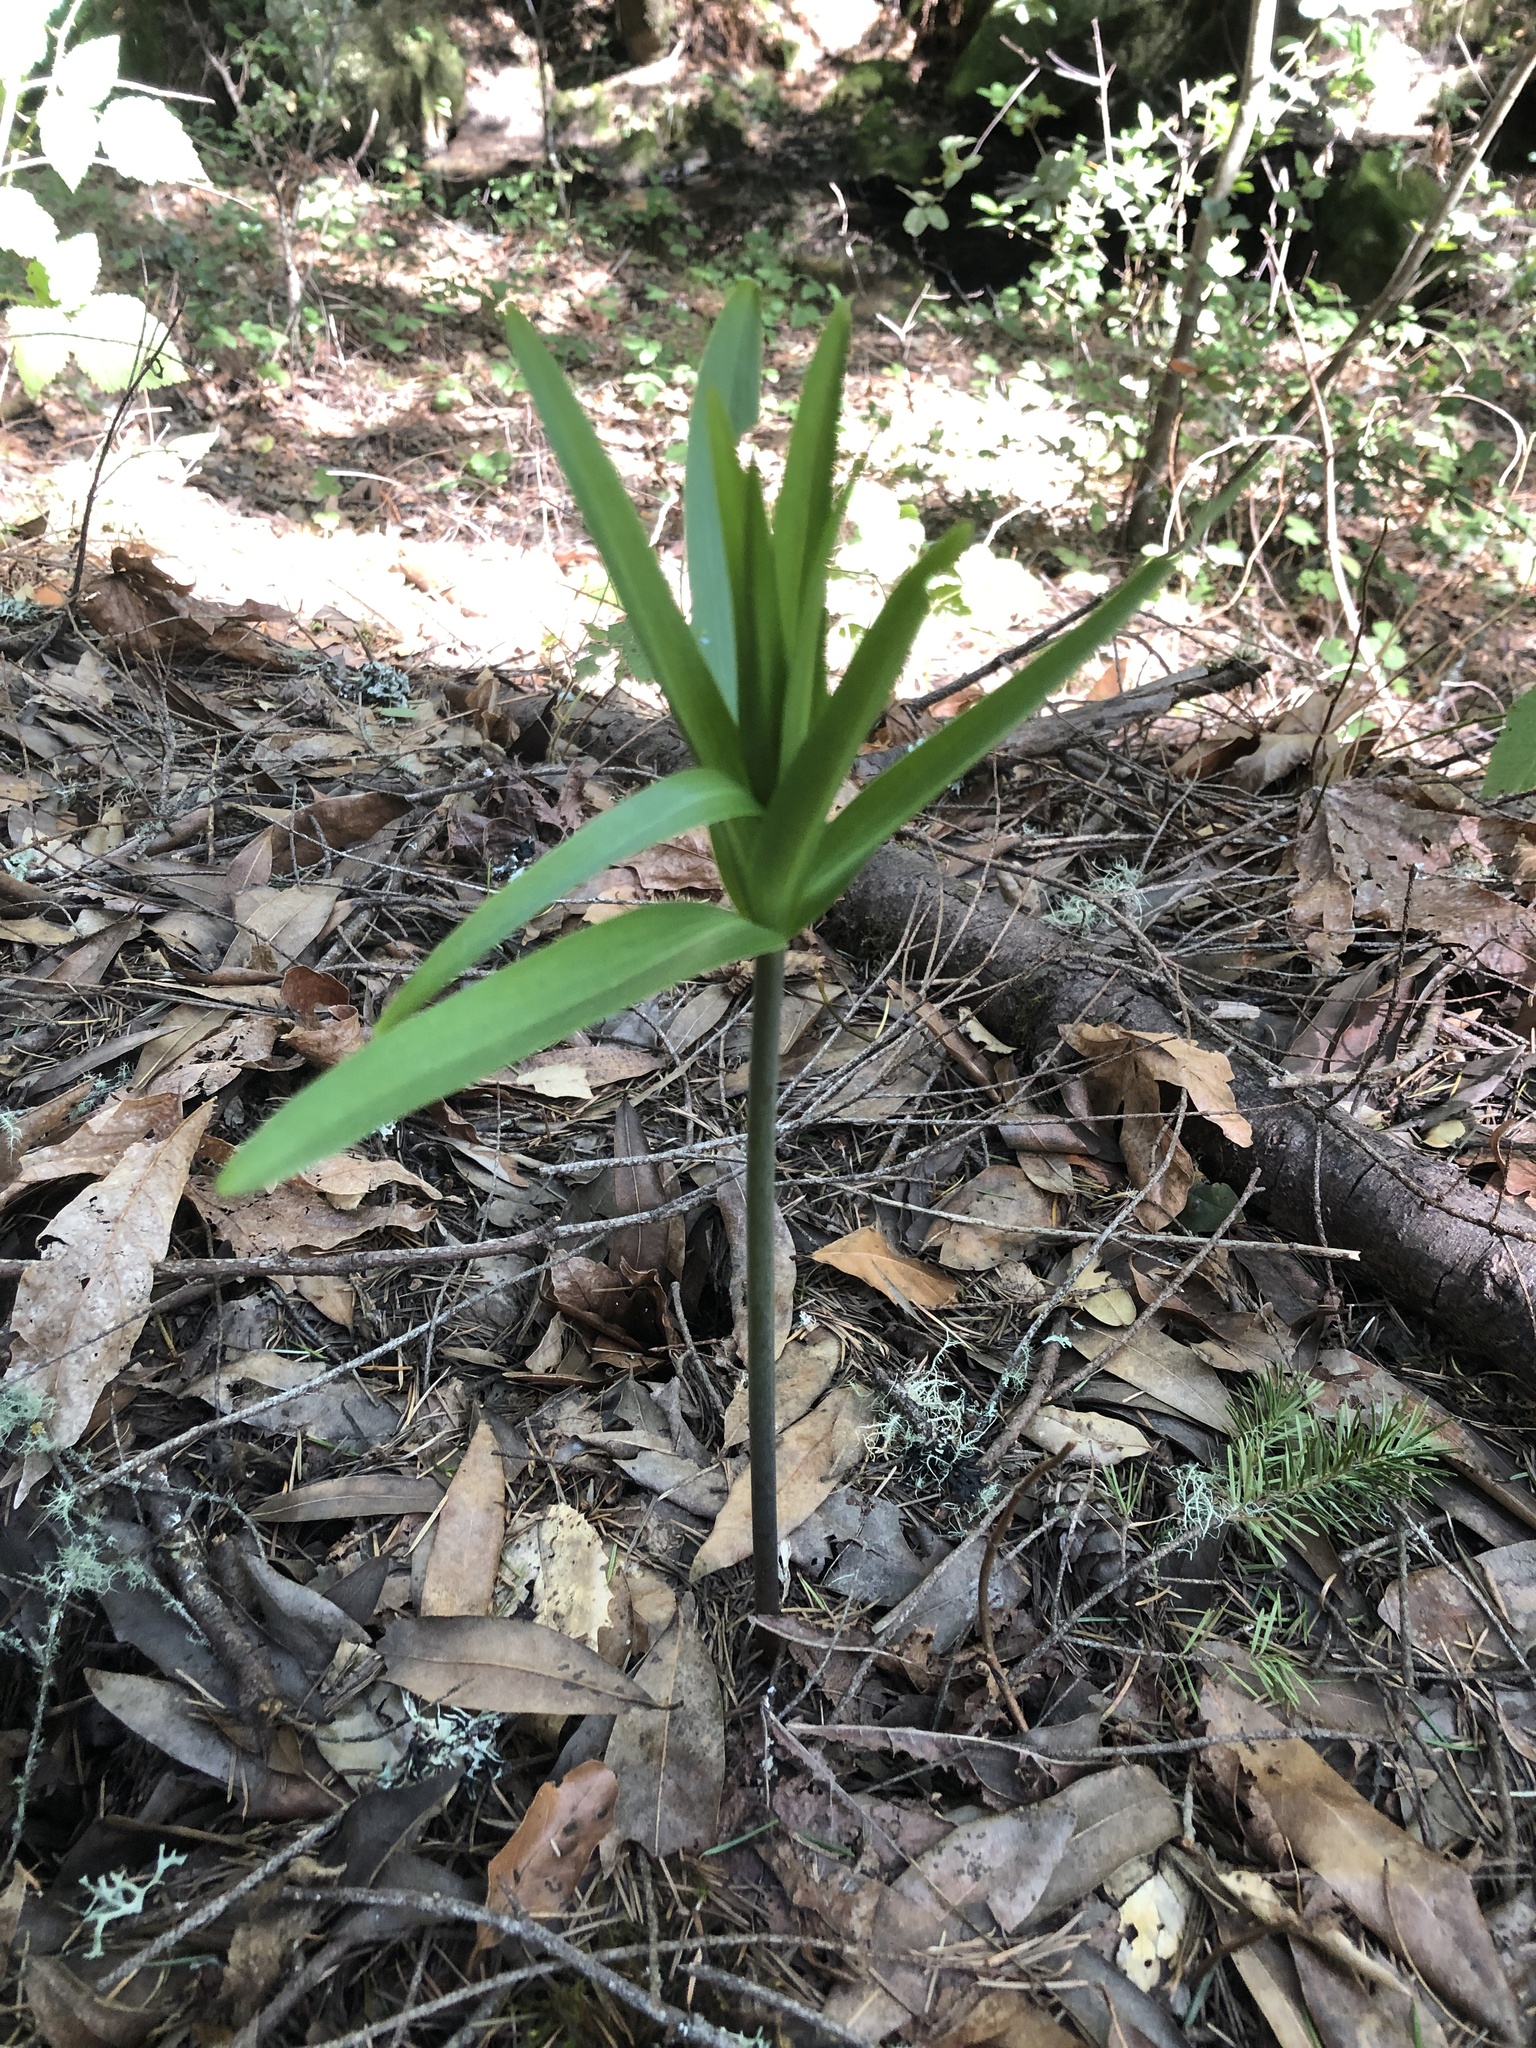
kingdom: Plantae
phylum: Tracheophyta
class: Liliopsida
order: Liliales
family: Liliaceae
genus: Fritillaria
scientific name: Fritillaria affinis
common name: Ojai fritillary
